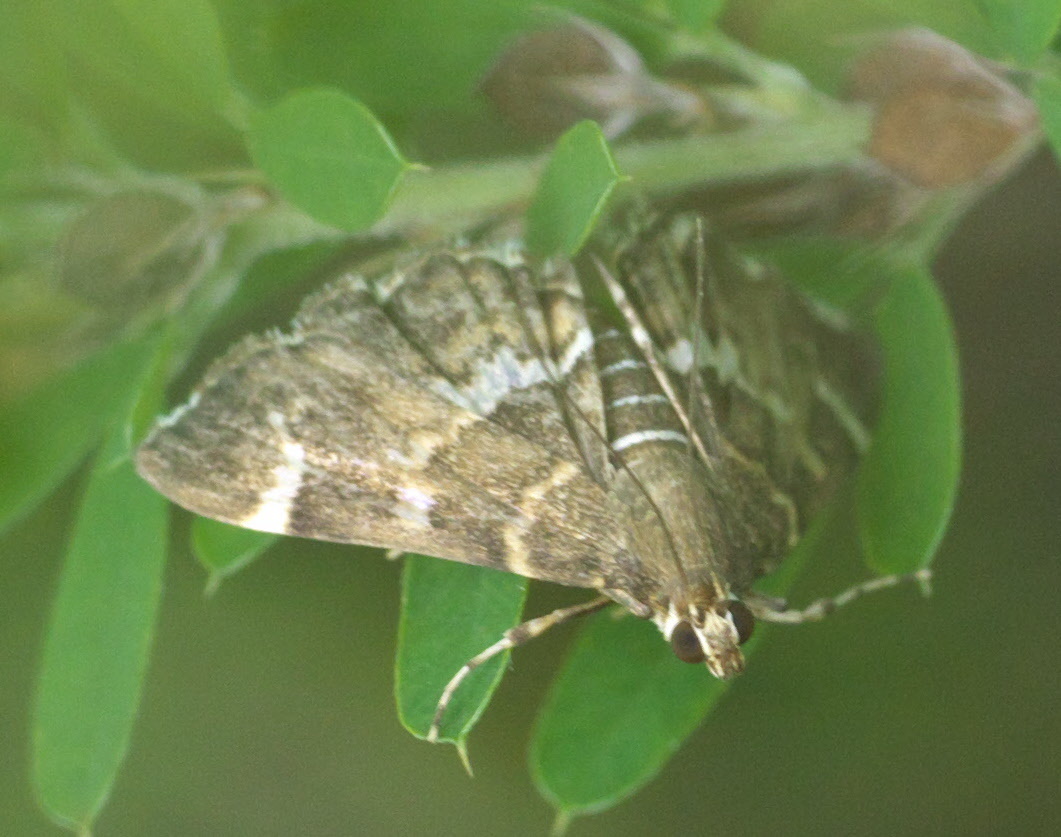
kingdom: Animalia
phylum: Arthropoda
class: Insecta
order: Lepidoptera
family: Crambidae
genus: Hymenia
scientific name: Hymenia perspectalis
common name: Spotted beet webworm
